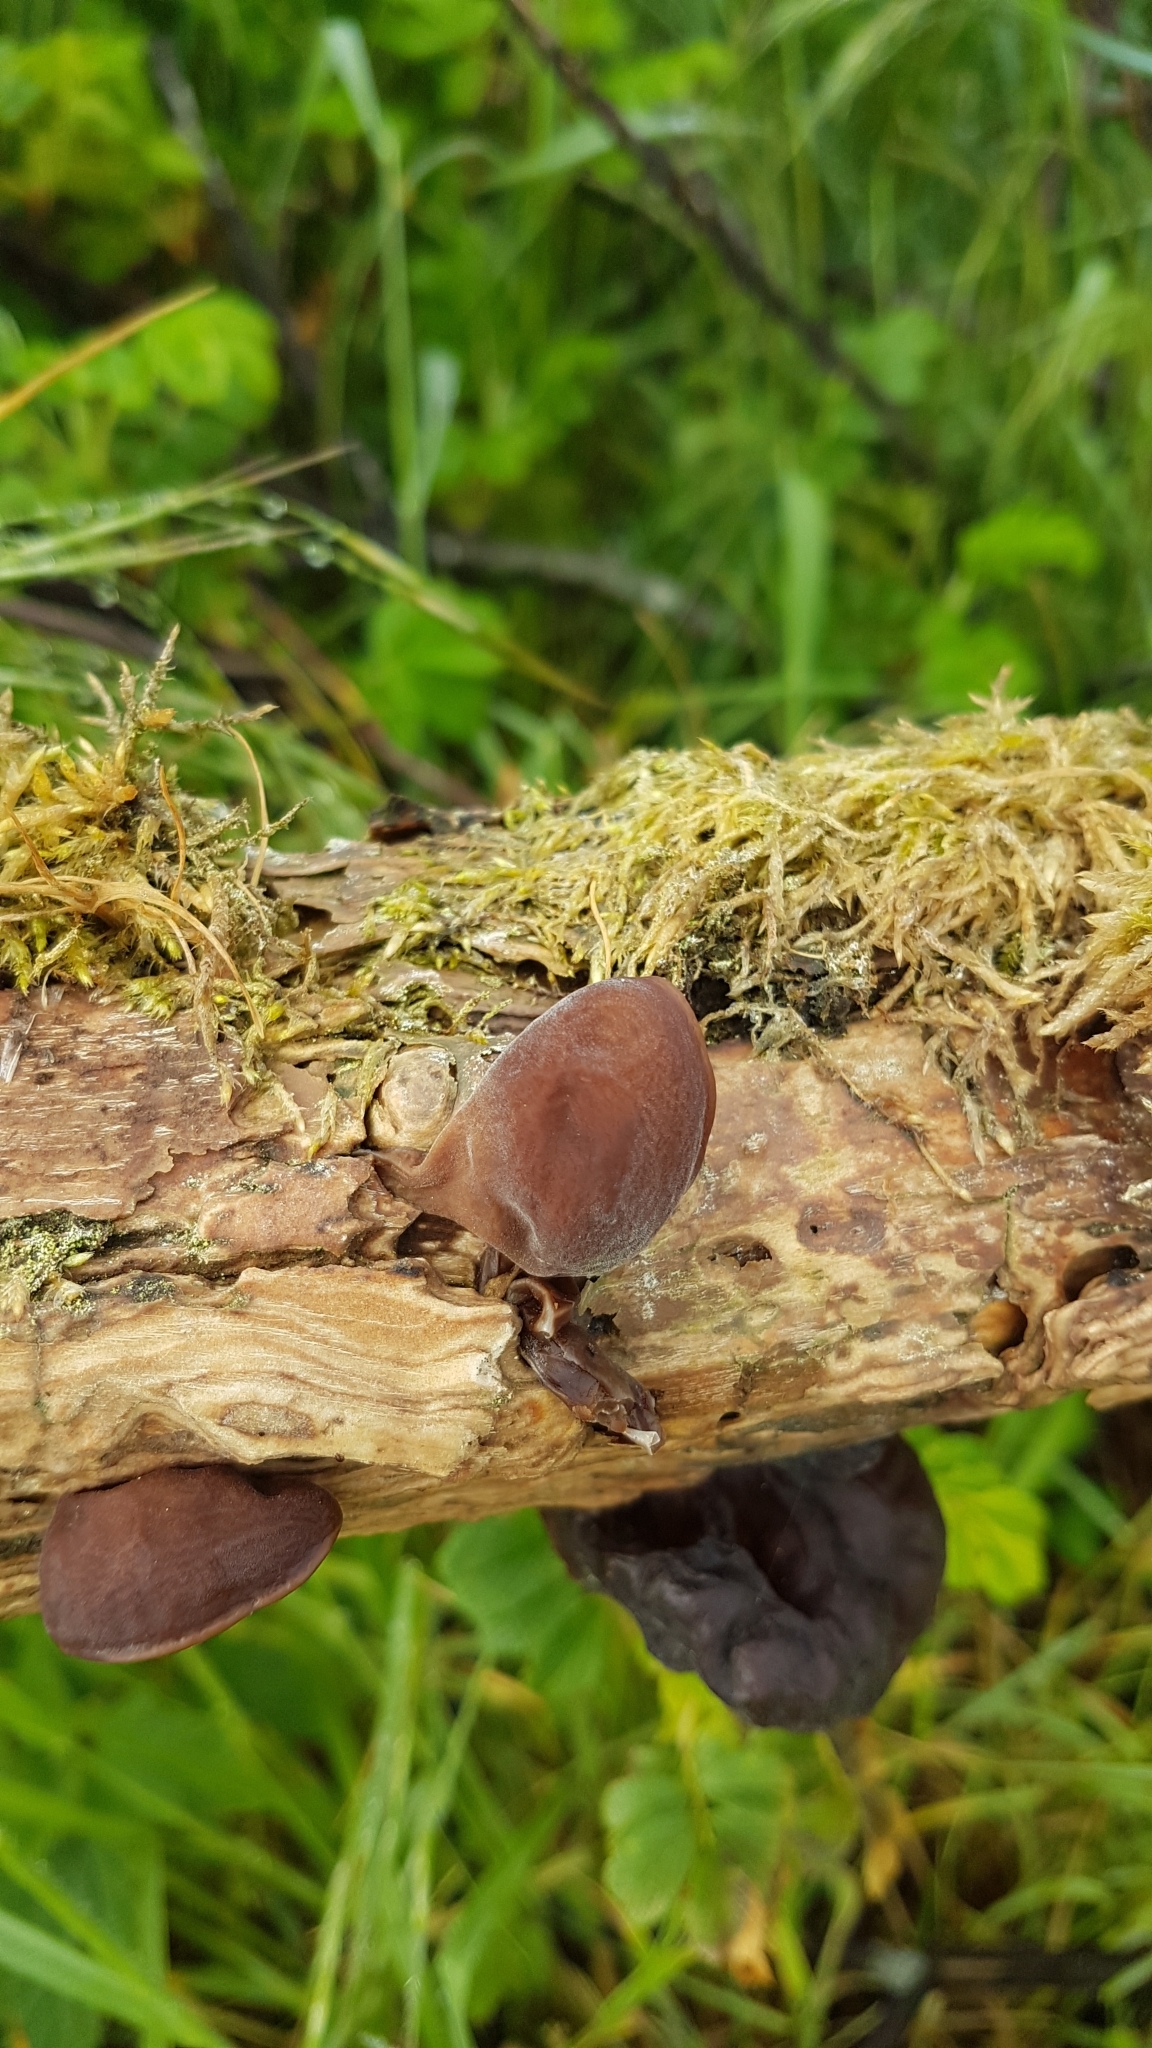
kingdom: Fungi
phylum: Basidiomycota
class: Agaricomycetes
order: Auriculariales
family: Auriculariaceae
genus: Auricularia
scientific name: Auricularia auricula-judae
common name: Jelly ear
